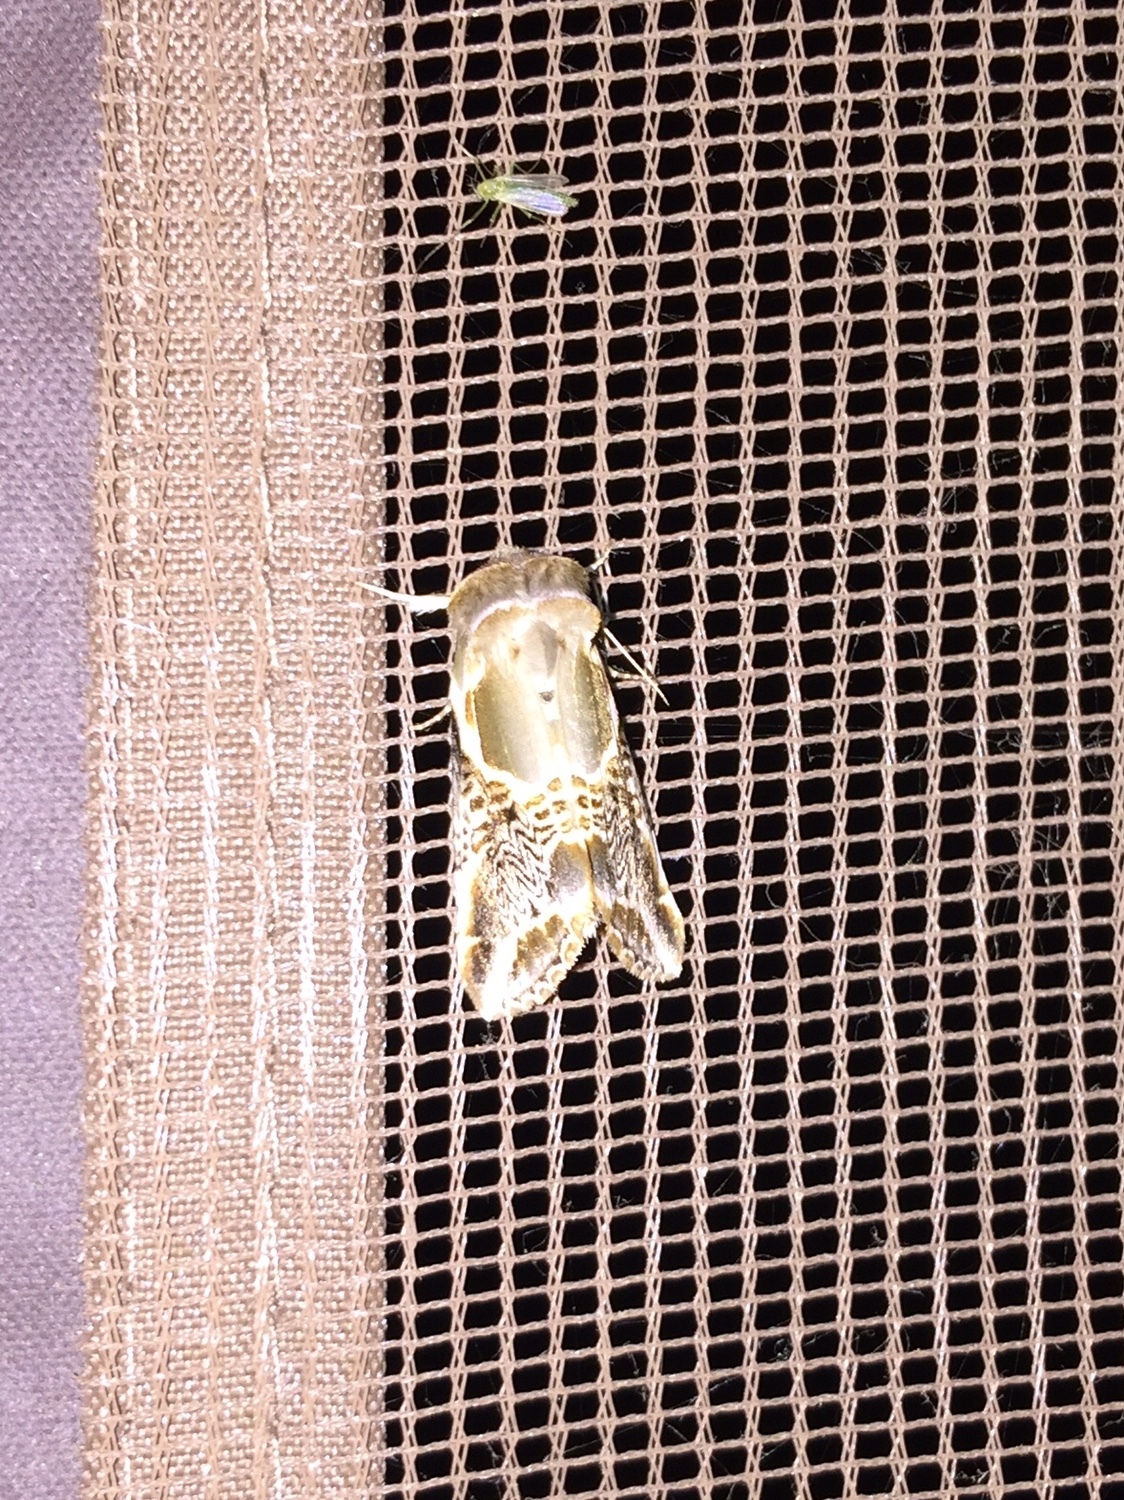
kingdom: Animalia
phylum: Arthropoda
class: Insecta
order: Lepidoptera
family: Drepanidae
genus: Habrosyne
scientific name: Habrosyne scripta
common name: Lettered habrosyne moth
